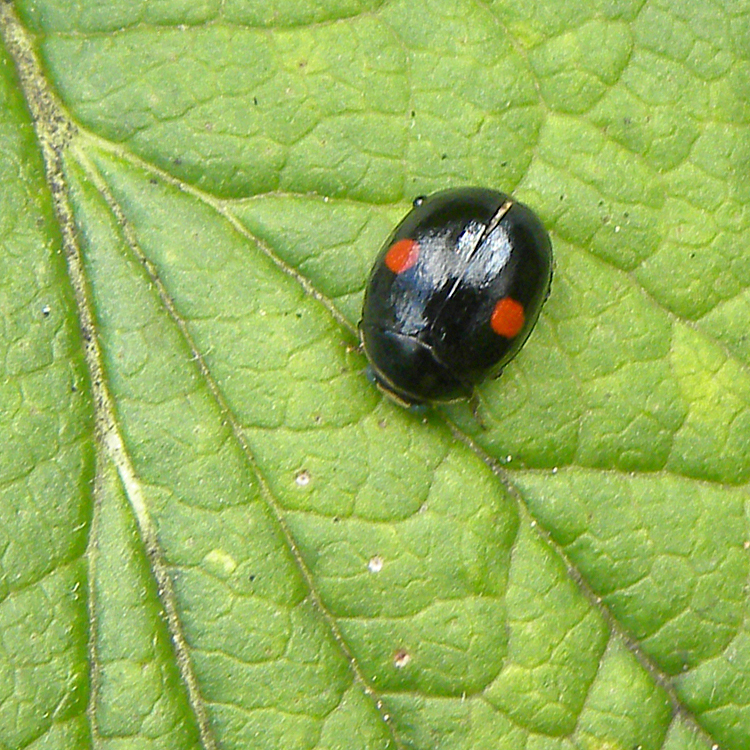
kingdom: Animalia
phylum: Arthropoda
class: Insecta
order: Coleoptera
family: Coccinellidae
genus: Hyperaspis
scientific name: Hyperaspis
